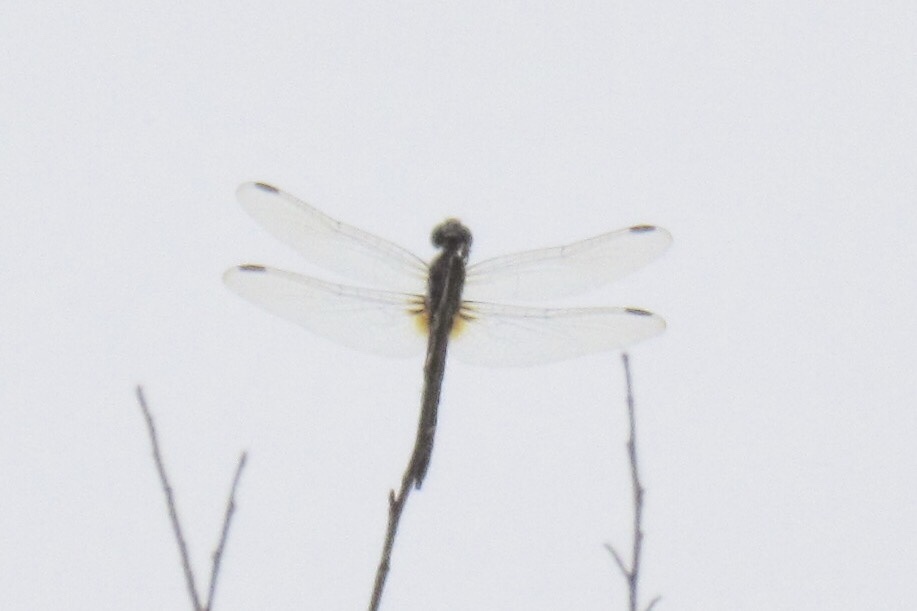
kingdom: Animalia
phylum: Arthropoda
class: Insecta
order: Odonata
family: Libellulidae
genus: Pachydiplax
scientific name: Pachydiplax longipennis
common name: Blue dasher
